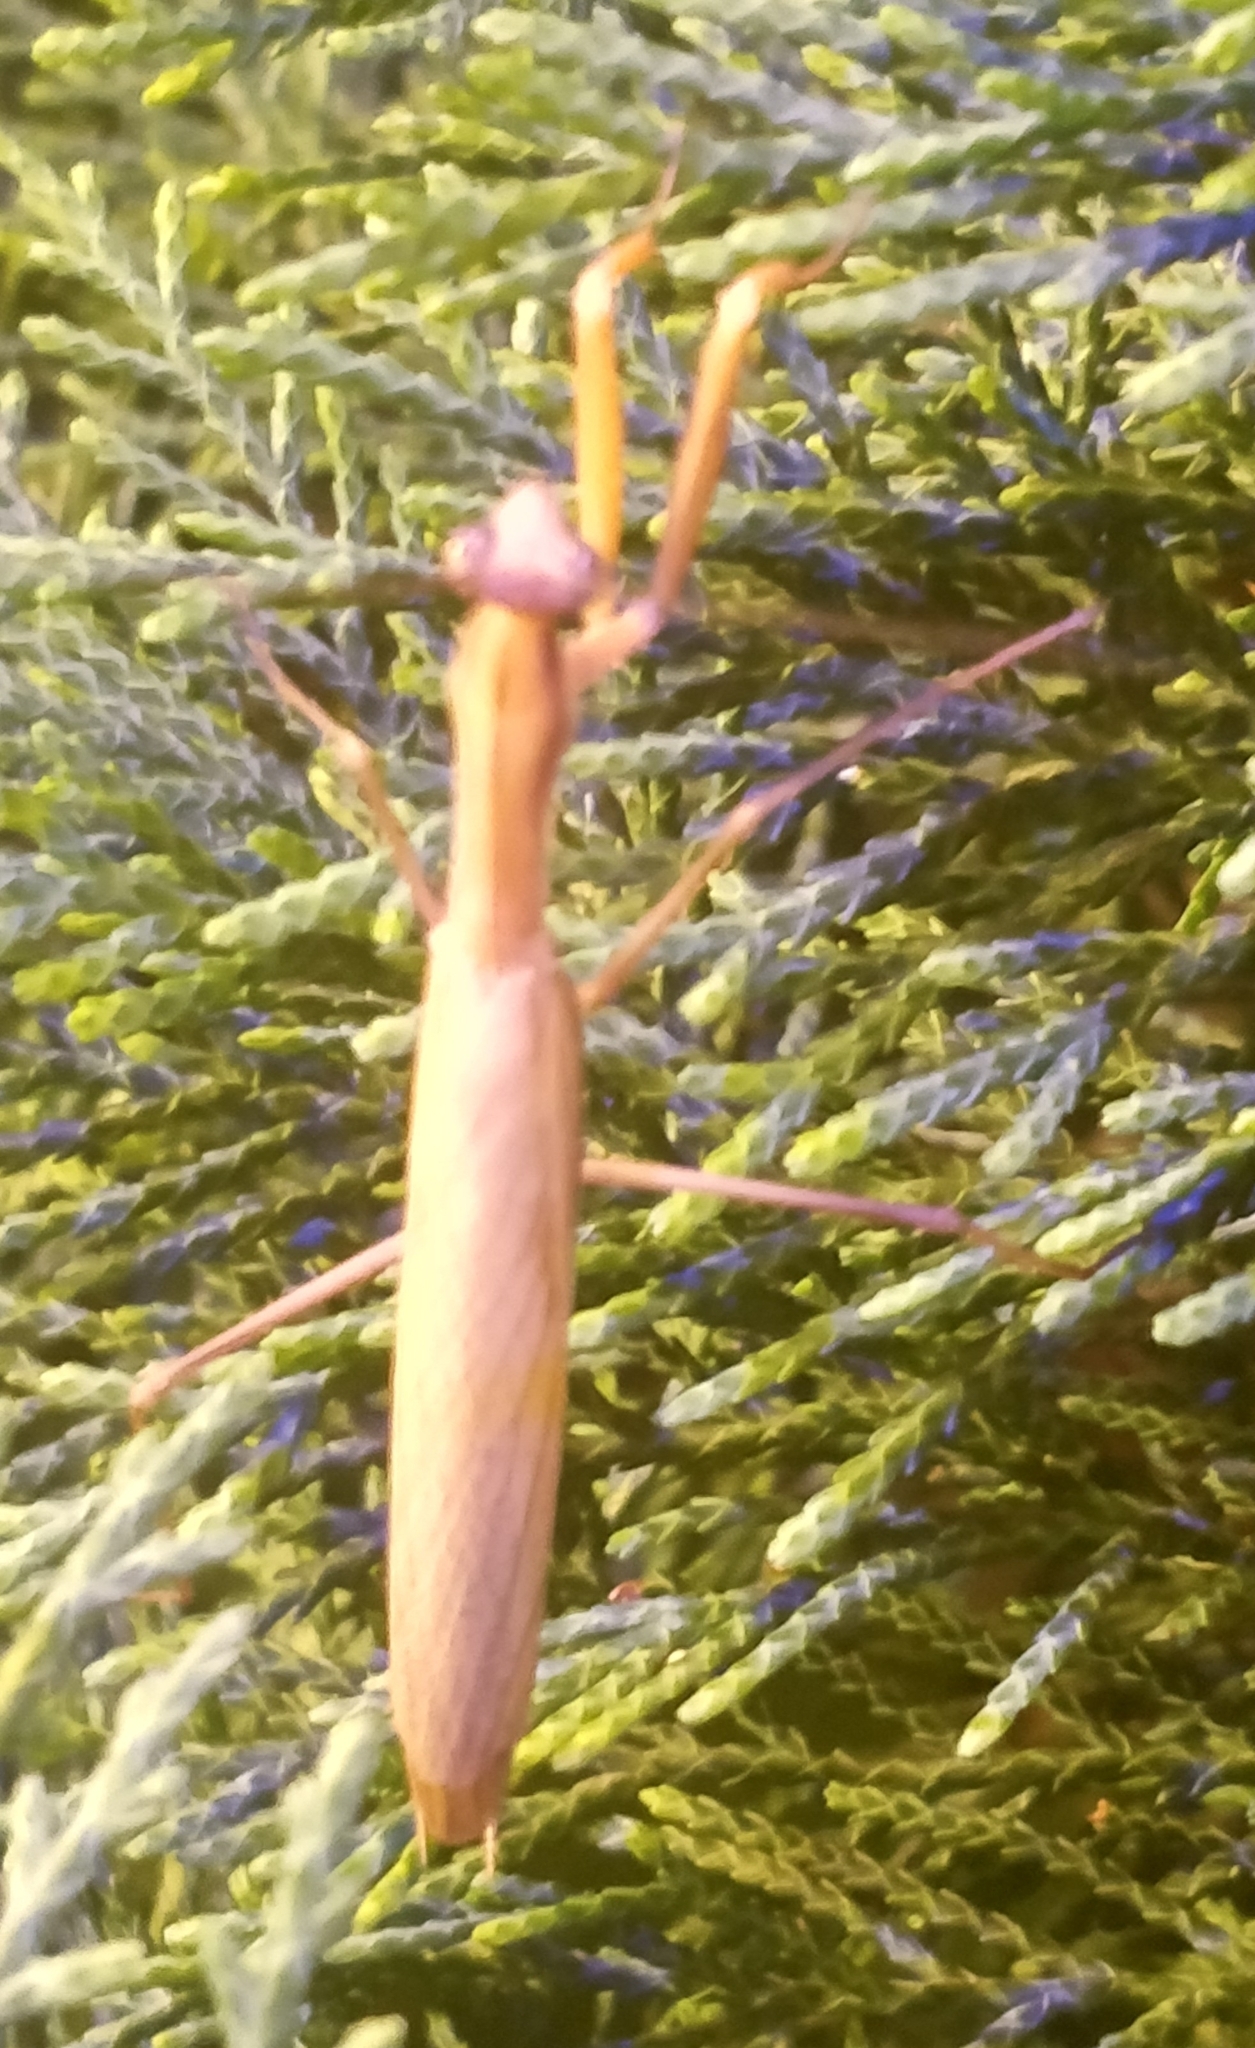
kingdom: Animalia
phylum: Arthropoda
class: Insecta
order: Mantodea
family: Mantidae
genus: Mantis
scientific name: Mantis religiosa
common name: Praying mantis
